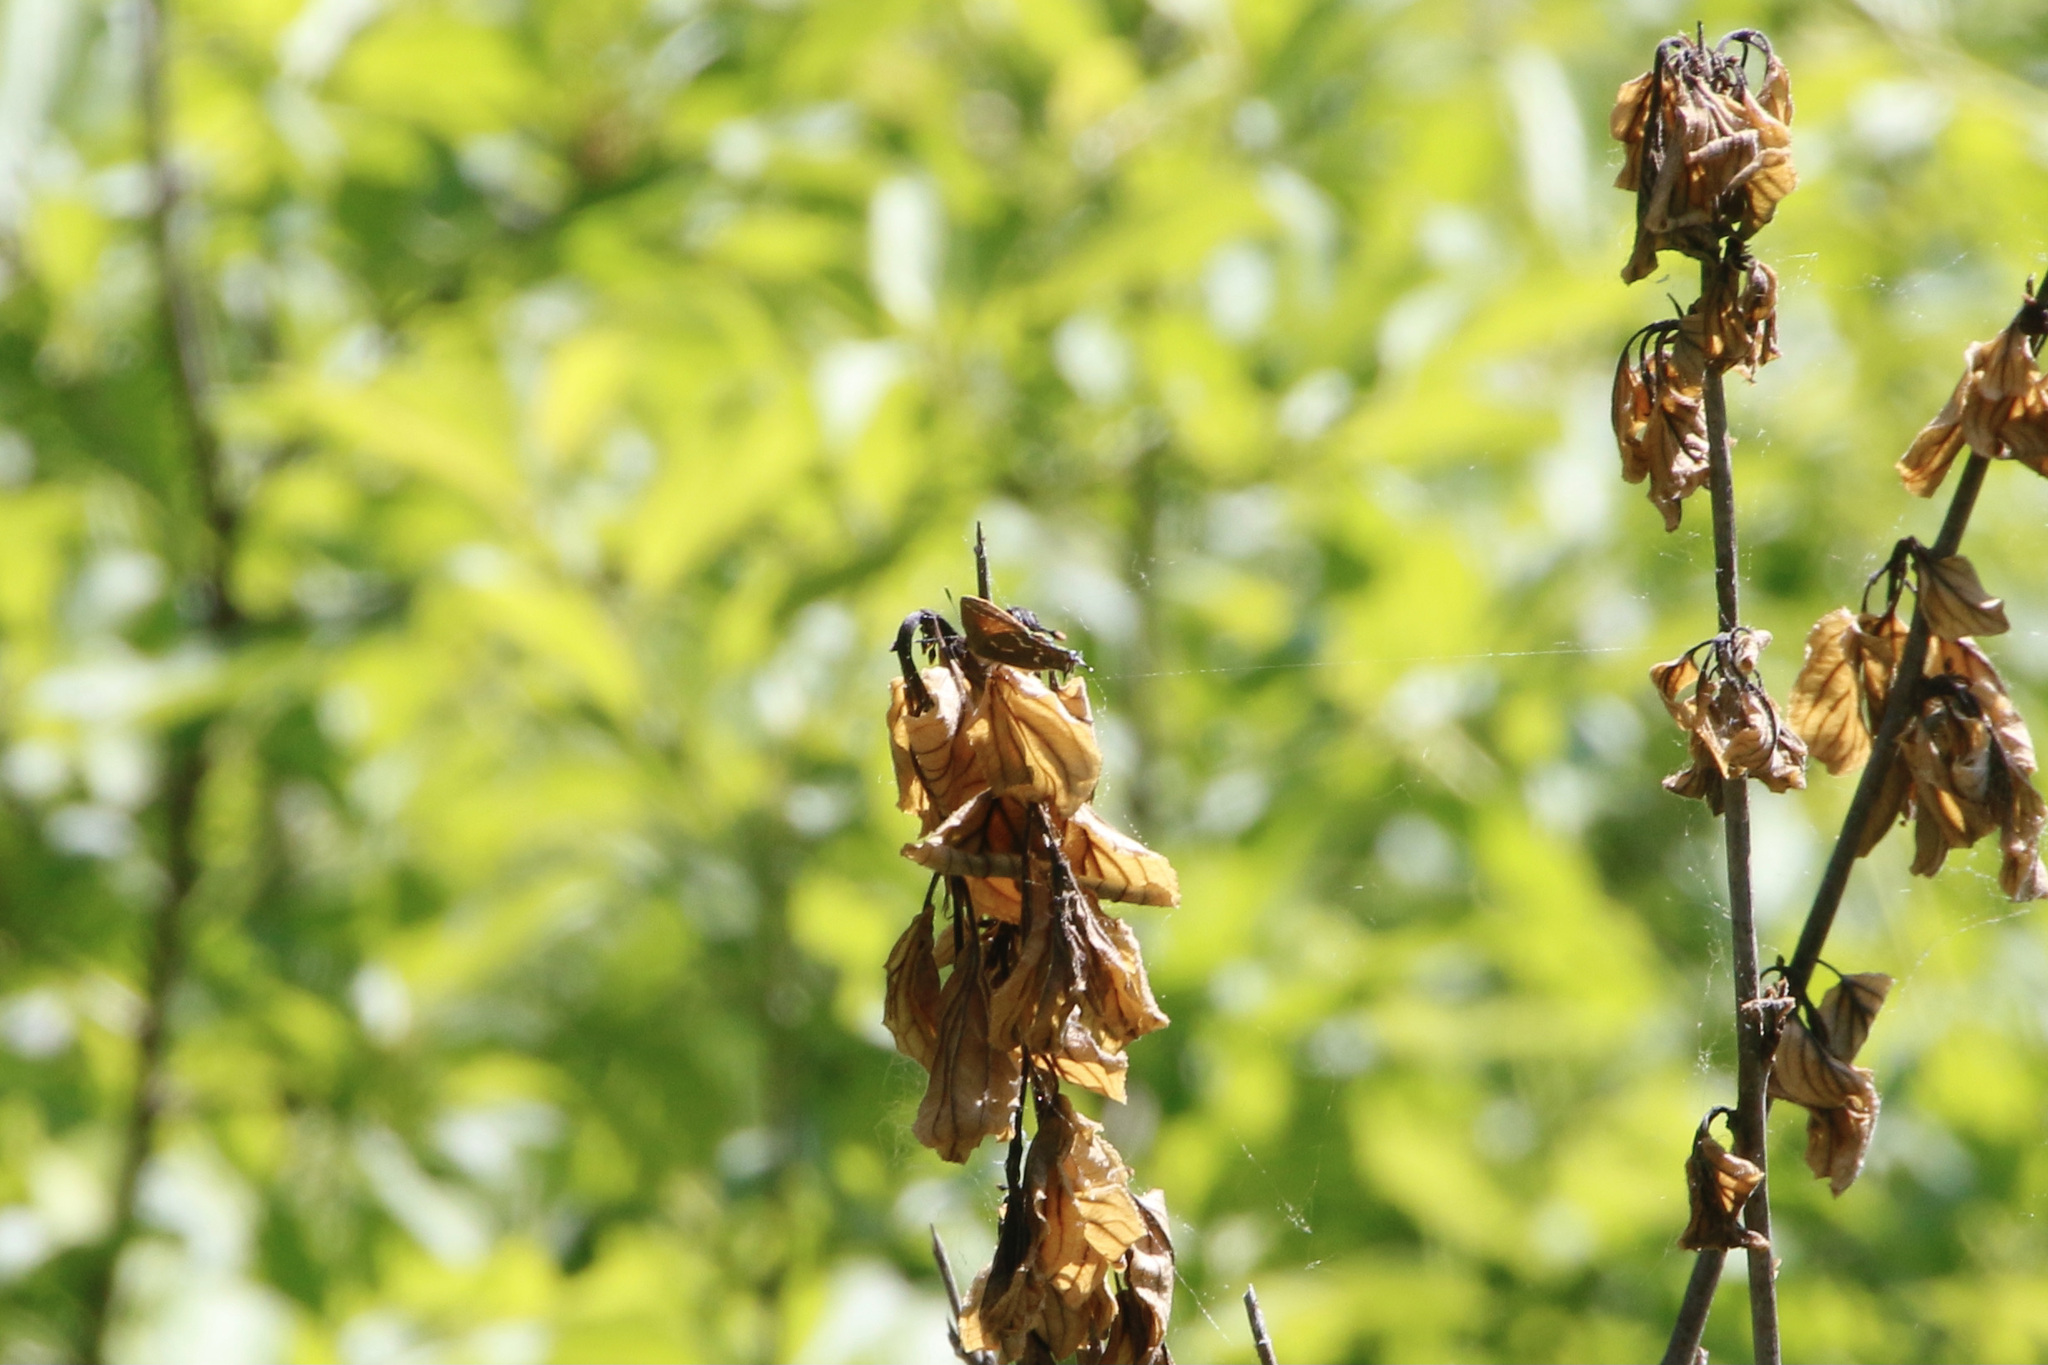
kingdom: Animalia
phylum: Arthropoda
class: Insecta
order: Lepidoptera
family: Lycaenidae
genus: Mitoura
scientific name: Mitoura gryneus
